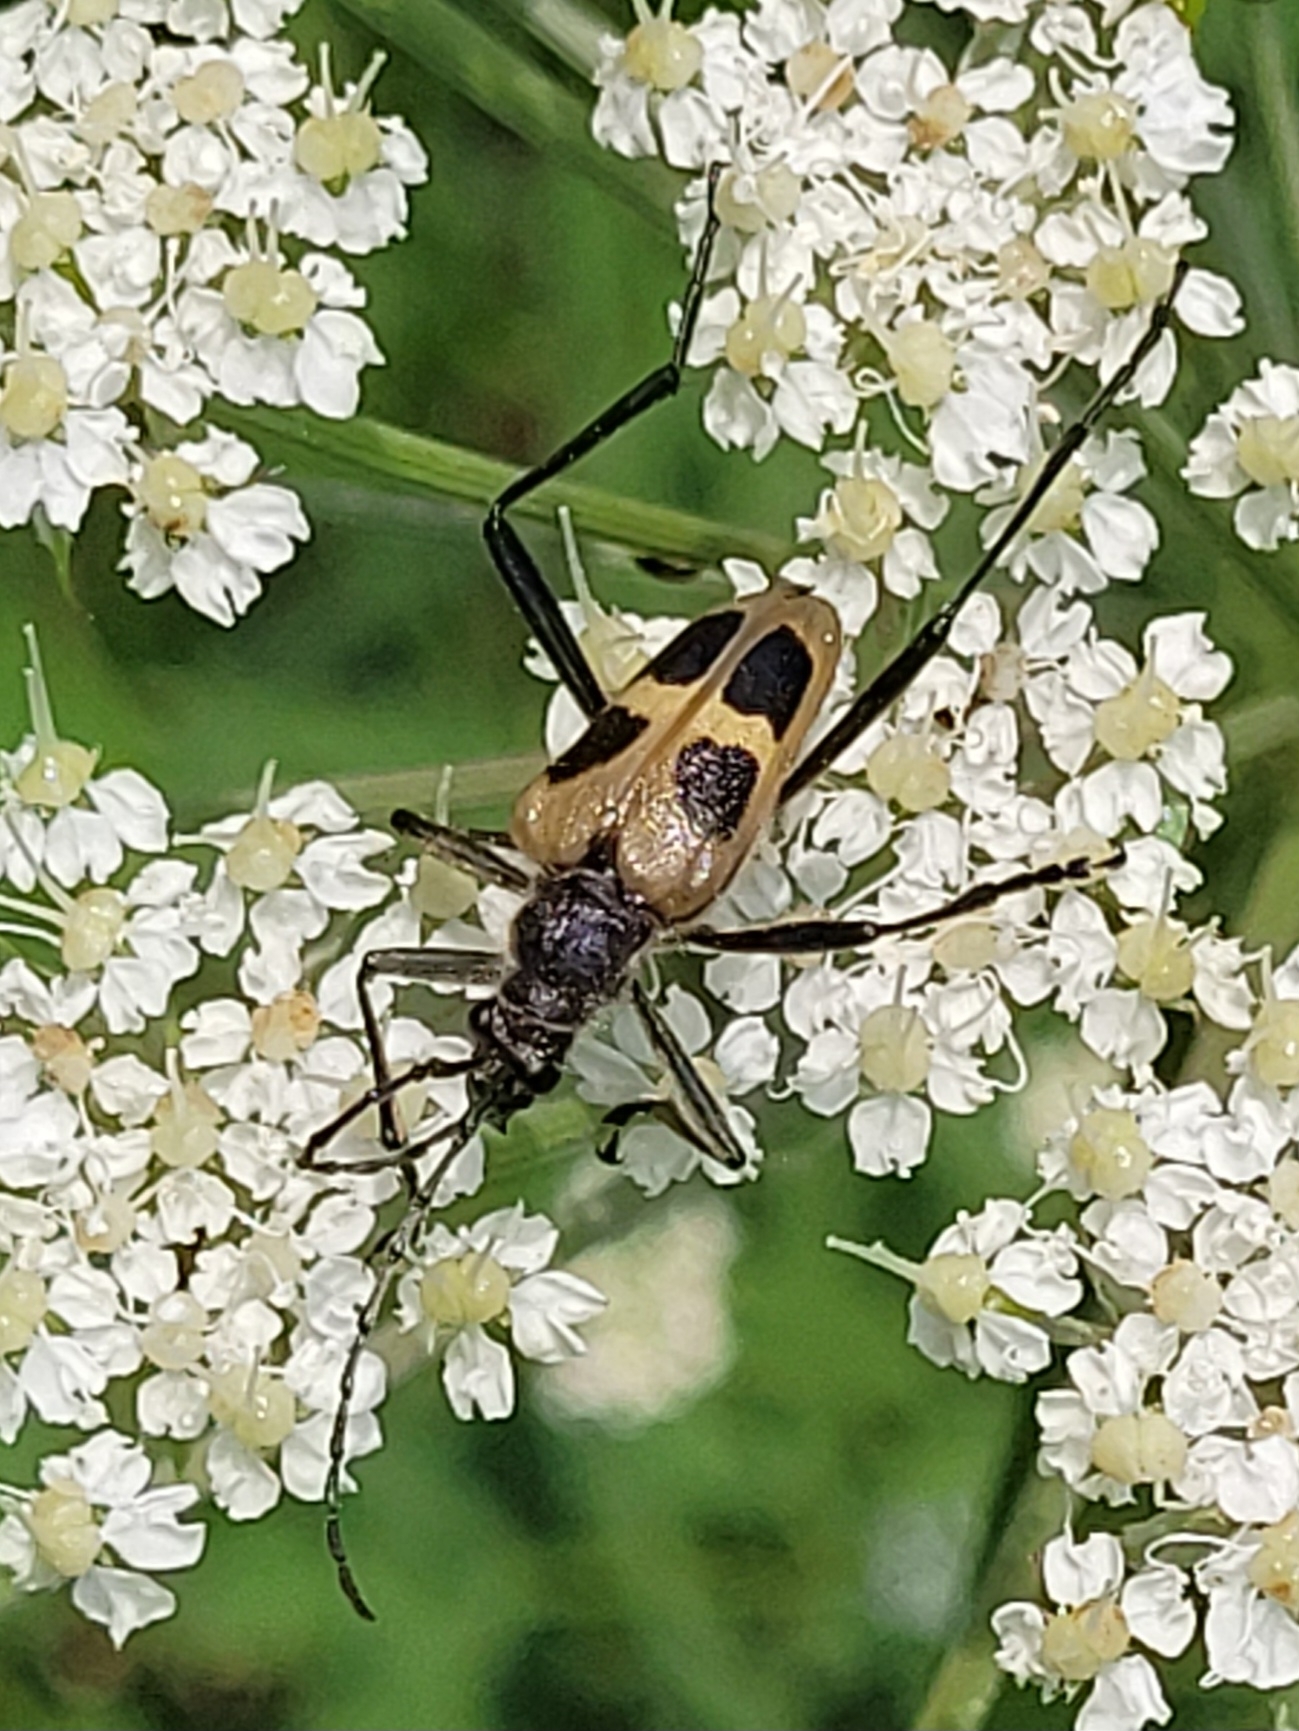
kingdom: Animalia
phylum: Arthropoda
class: Insecta
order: Coleoptera
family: Cerambycidae
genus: Pachyta
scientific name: Pachyta quadrimaculata
